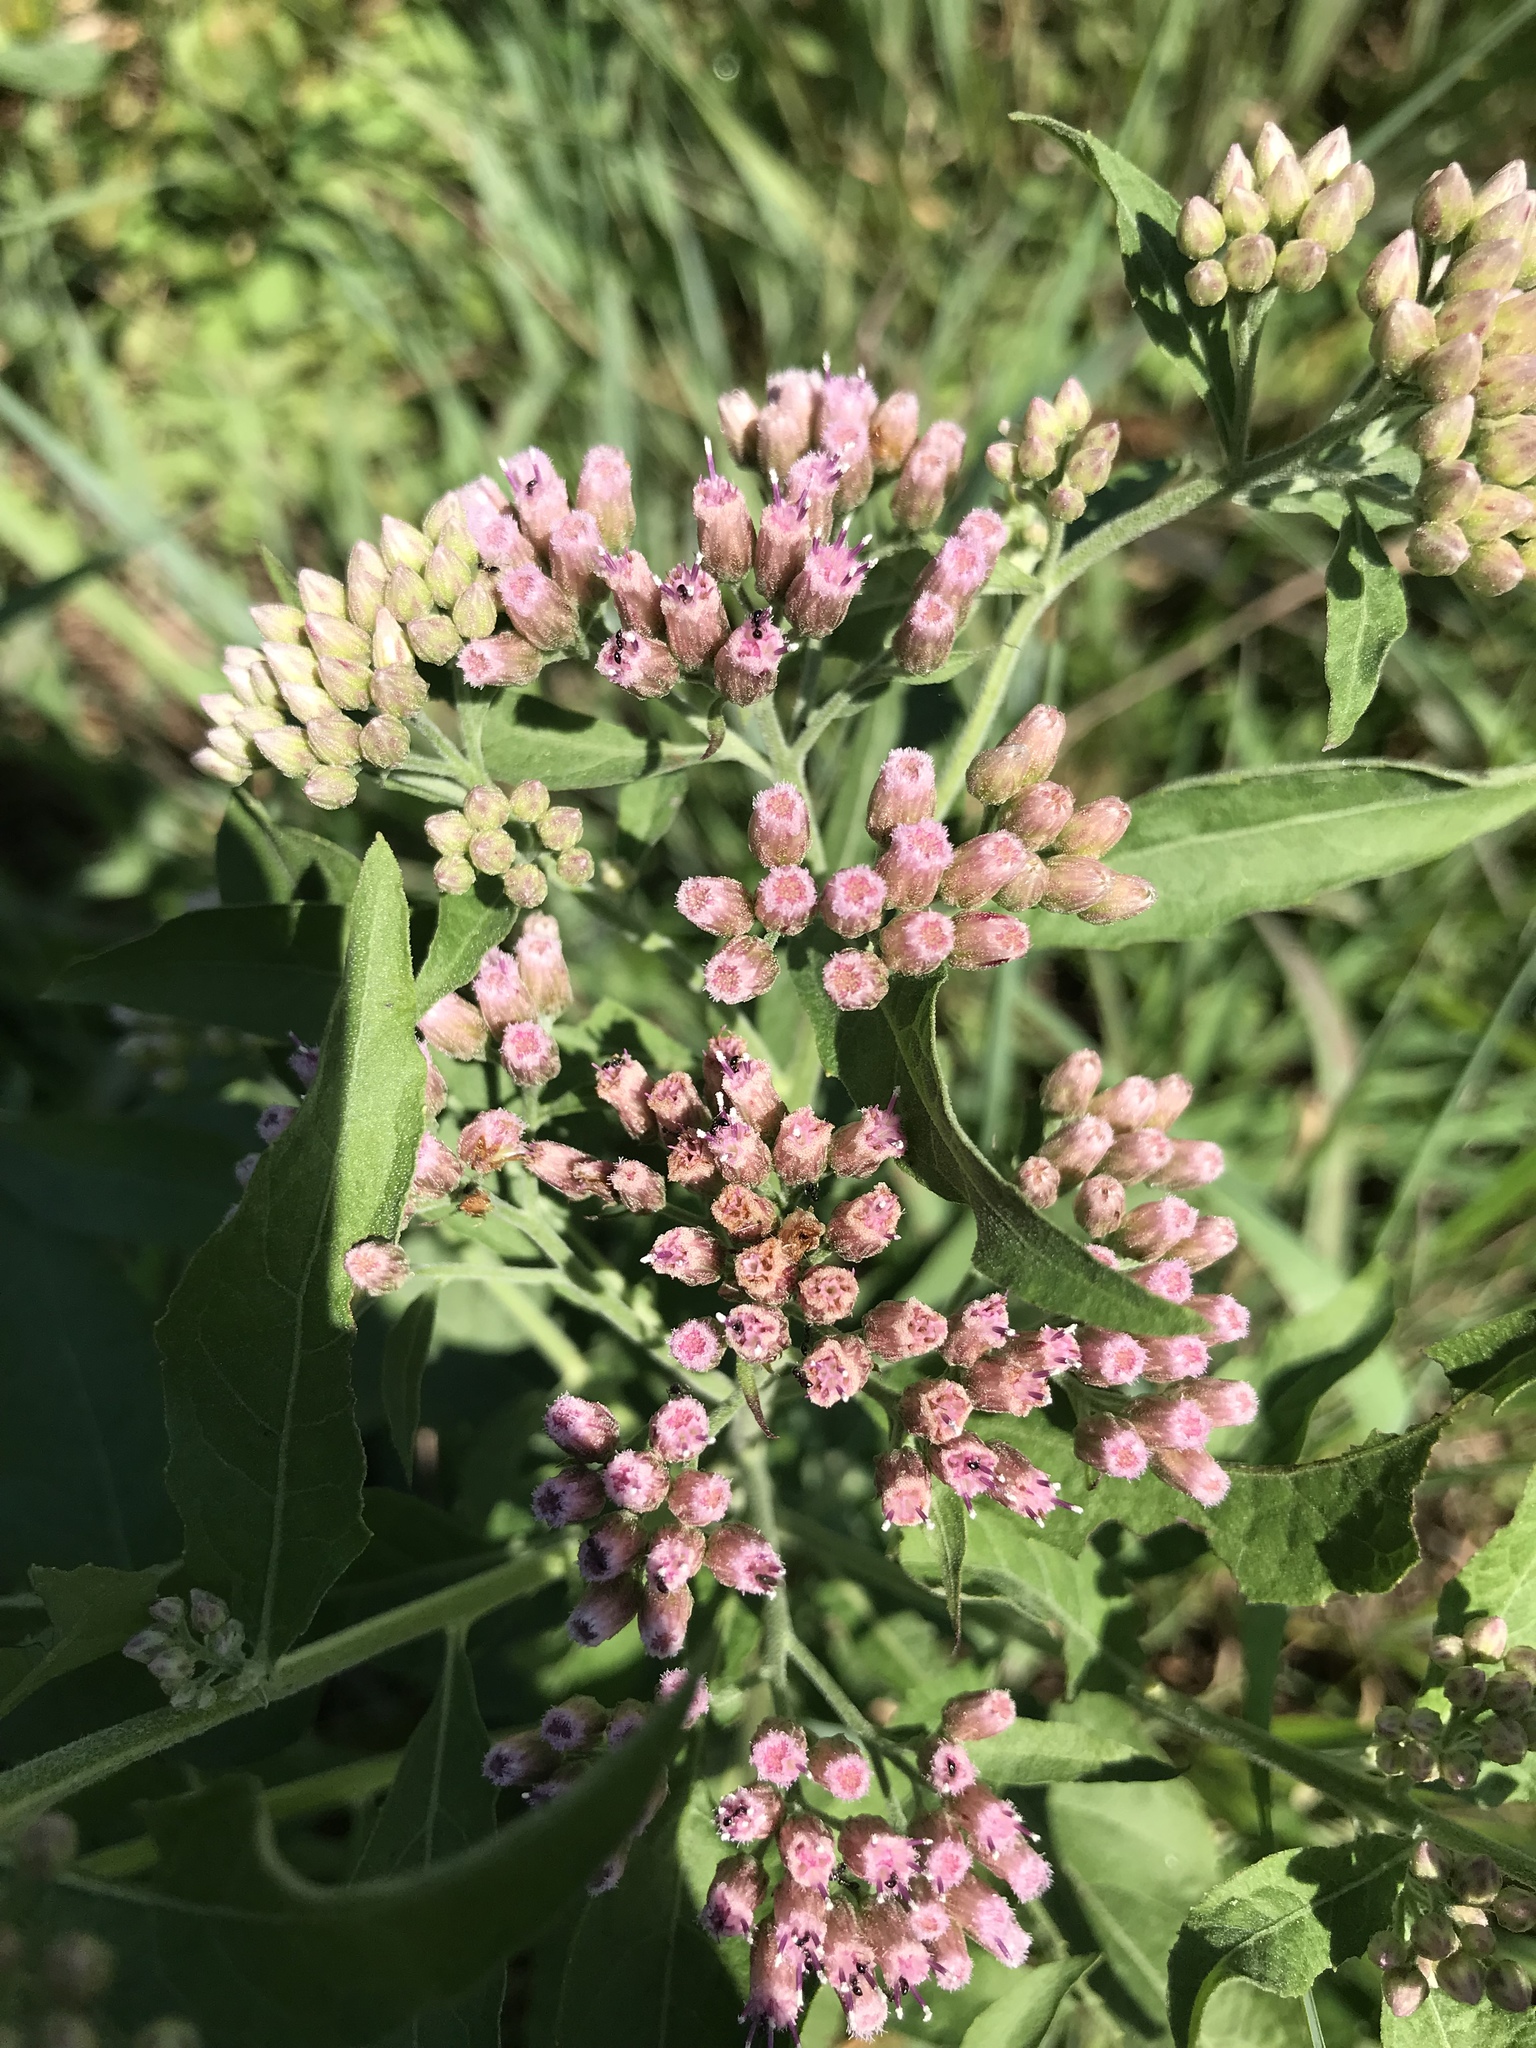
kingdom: Plantae
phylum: Tracheophyta
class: Magnoliopsida
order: Asterales
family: Asteraceae
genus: Pluchea
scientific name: Pluchea camphorata
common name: Camphor pluchea
